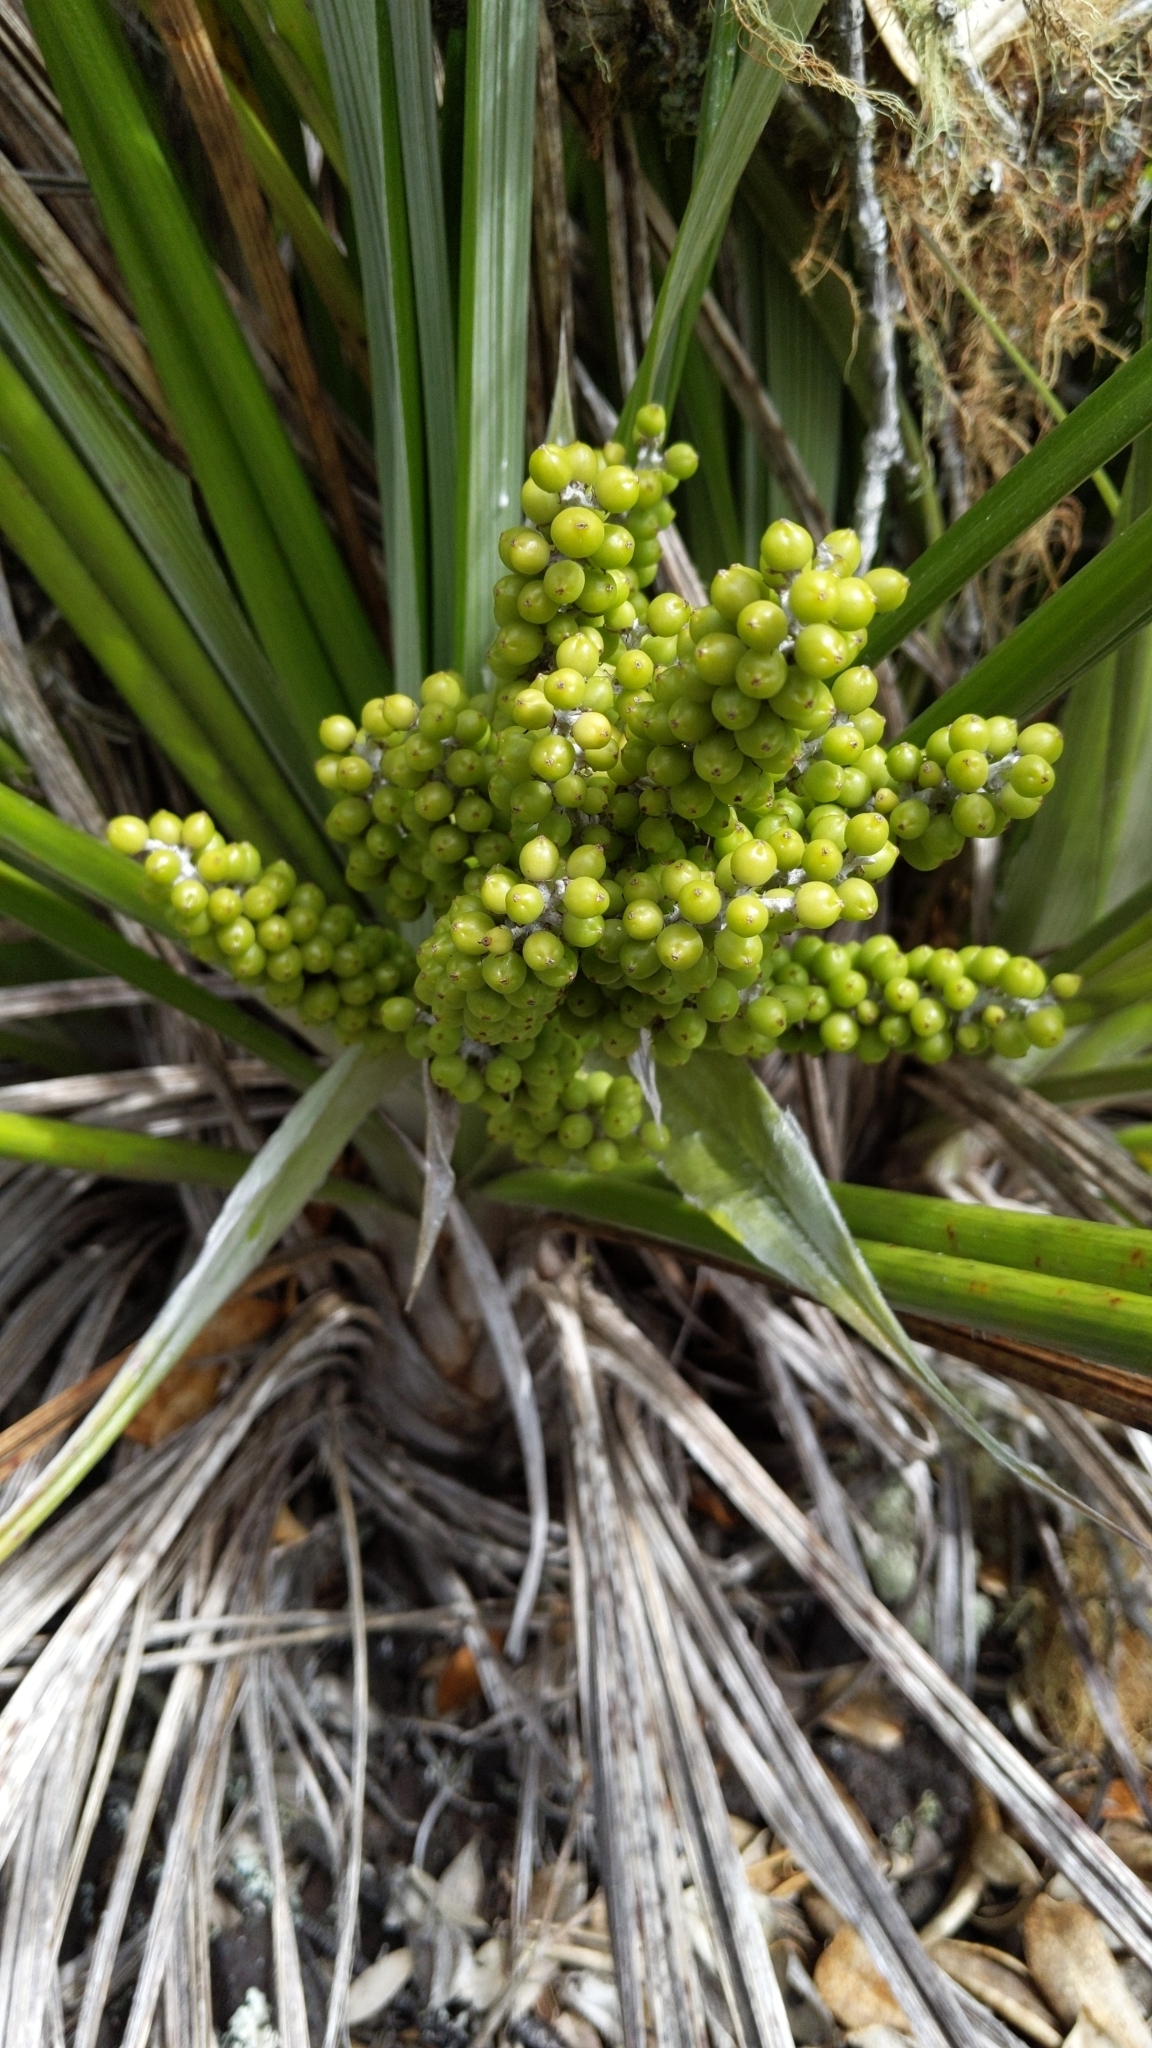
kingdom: Plantae
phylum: Tracheophyta
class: Liliopsida
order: Asparagales
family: Asteliaceae
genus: Astelia
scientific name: Astelia banksii
